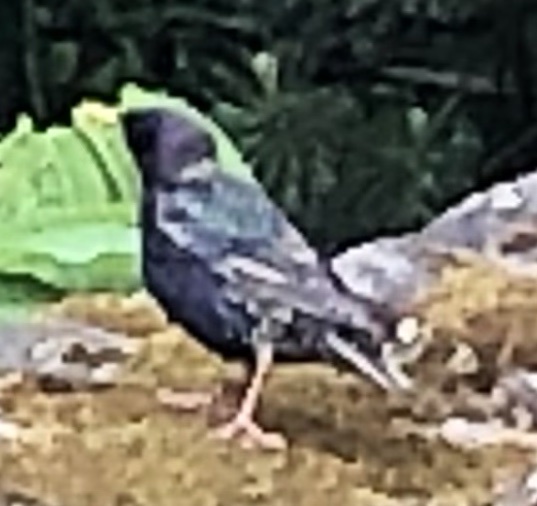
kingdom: Animalia
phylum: Chordata
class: Aves
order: Passeriformes
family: Sturnidae
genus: Sturnus
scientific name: Sturnus vulgaris
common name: Common starling
